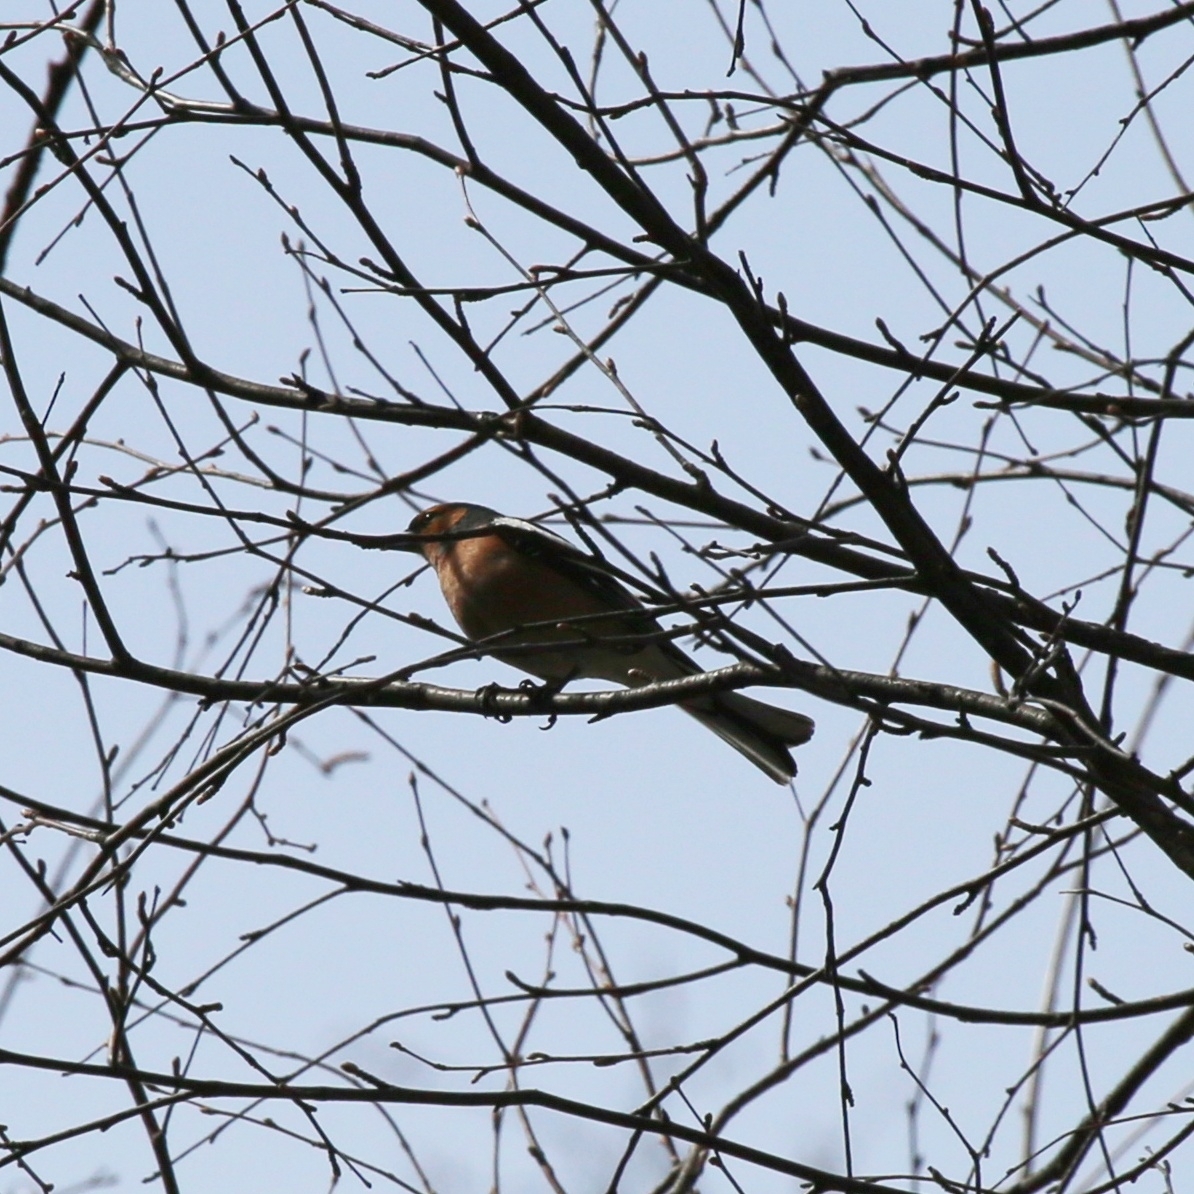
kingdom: Animalia
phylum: Chordata
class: Aves
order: Passeriformes
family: Fringillidae
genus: Fringilla
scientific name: Fringilla coelebs
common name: Common chaffinch
